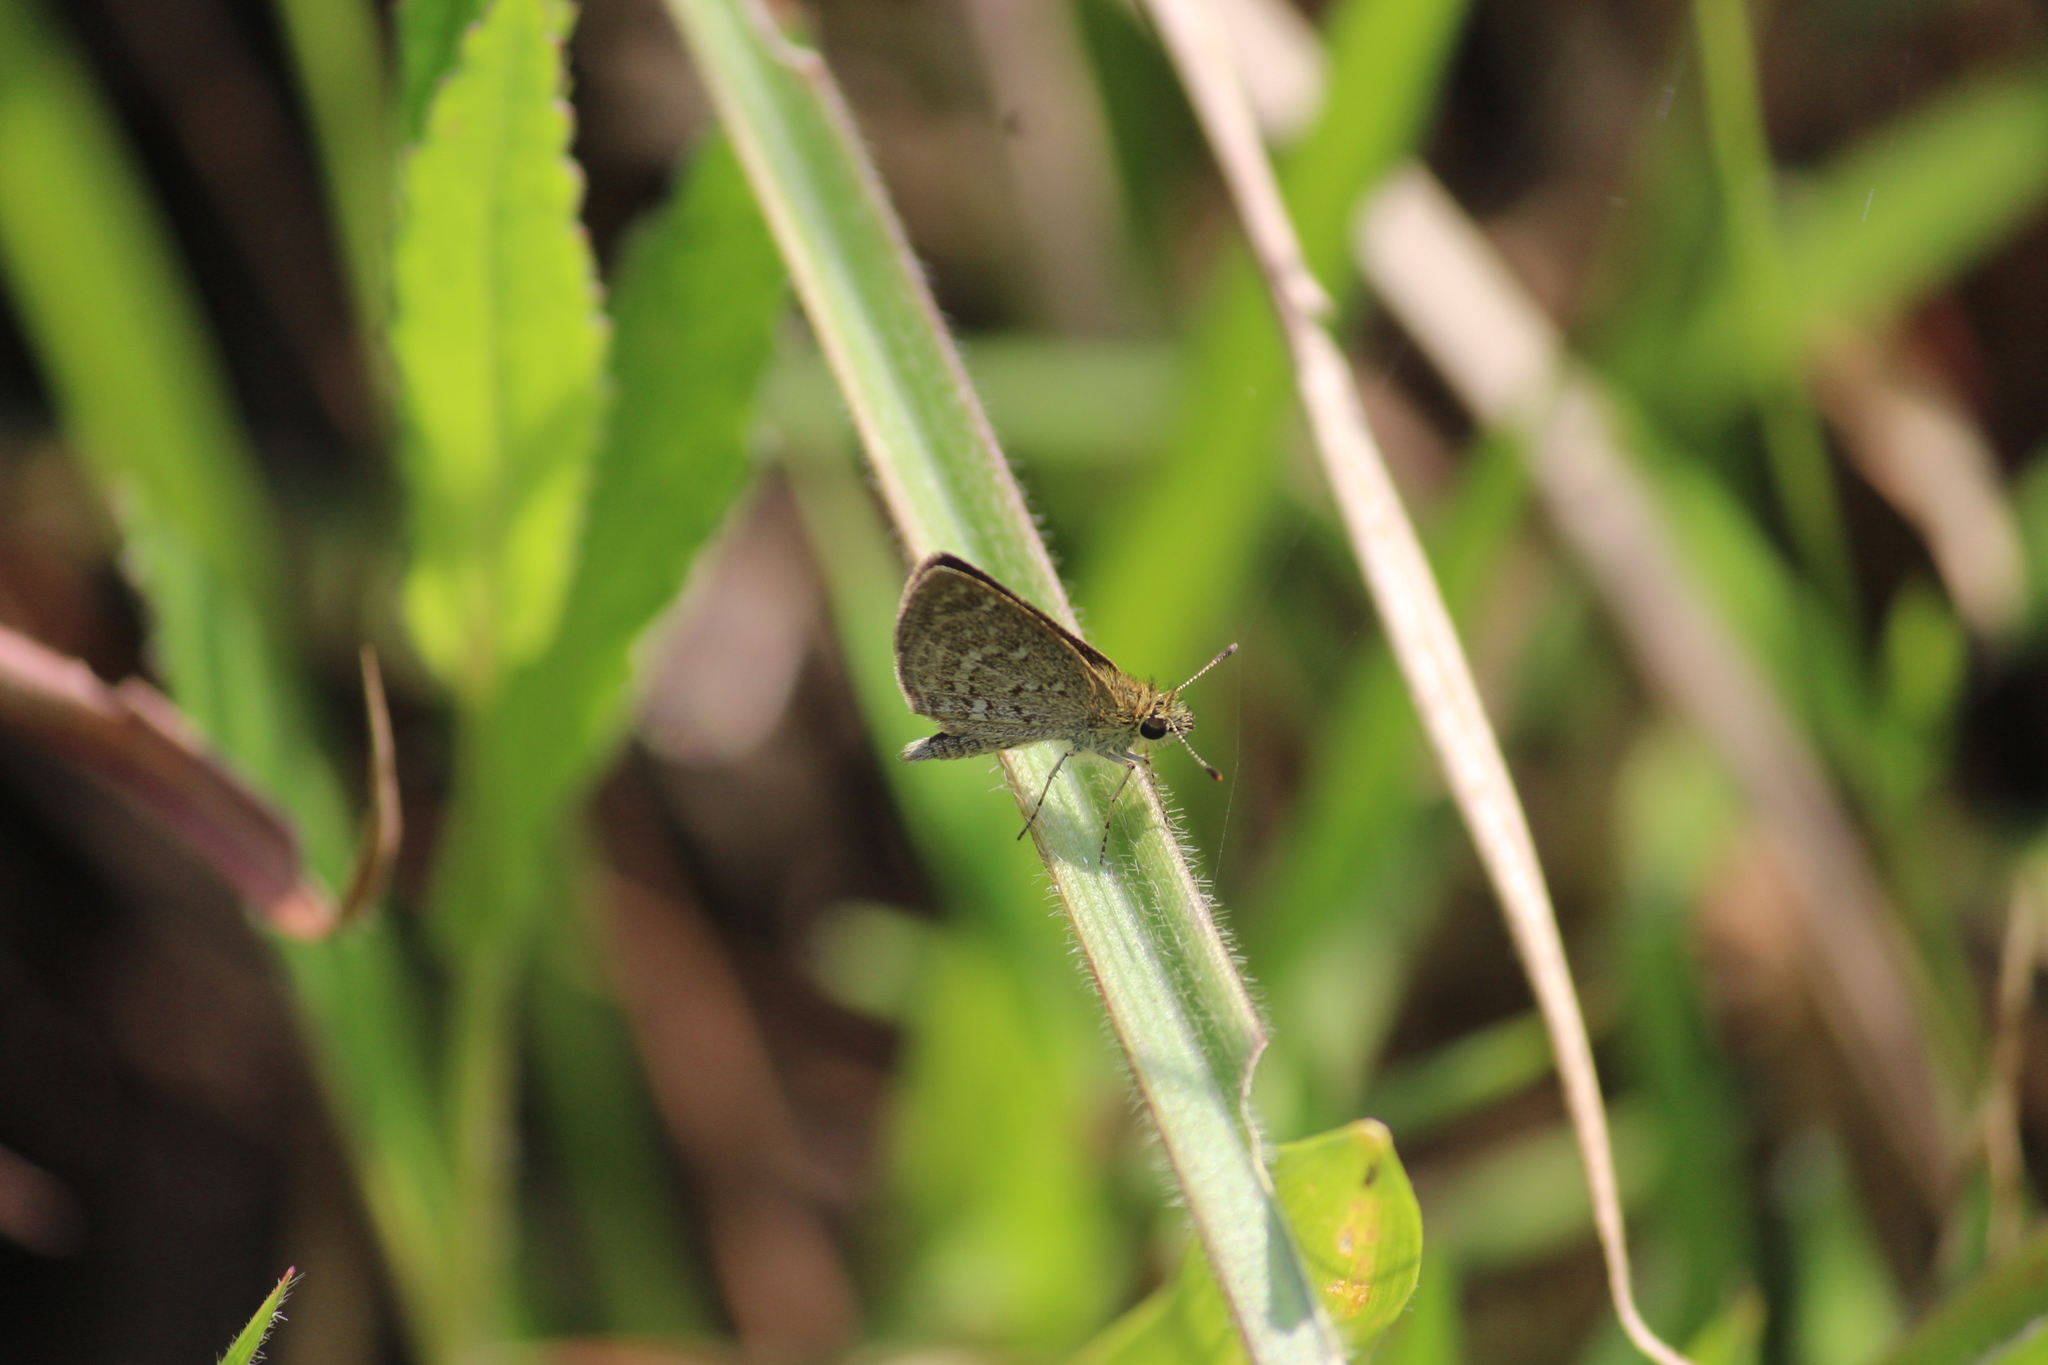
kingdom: Animalia
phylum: Arthropoda
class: Insecta
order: Lepidoptera
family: Hesperiidae
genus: Aeromachus
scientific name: Aeromachus pygmaeus
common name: Pygmy scrub hopper
